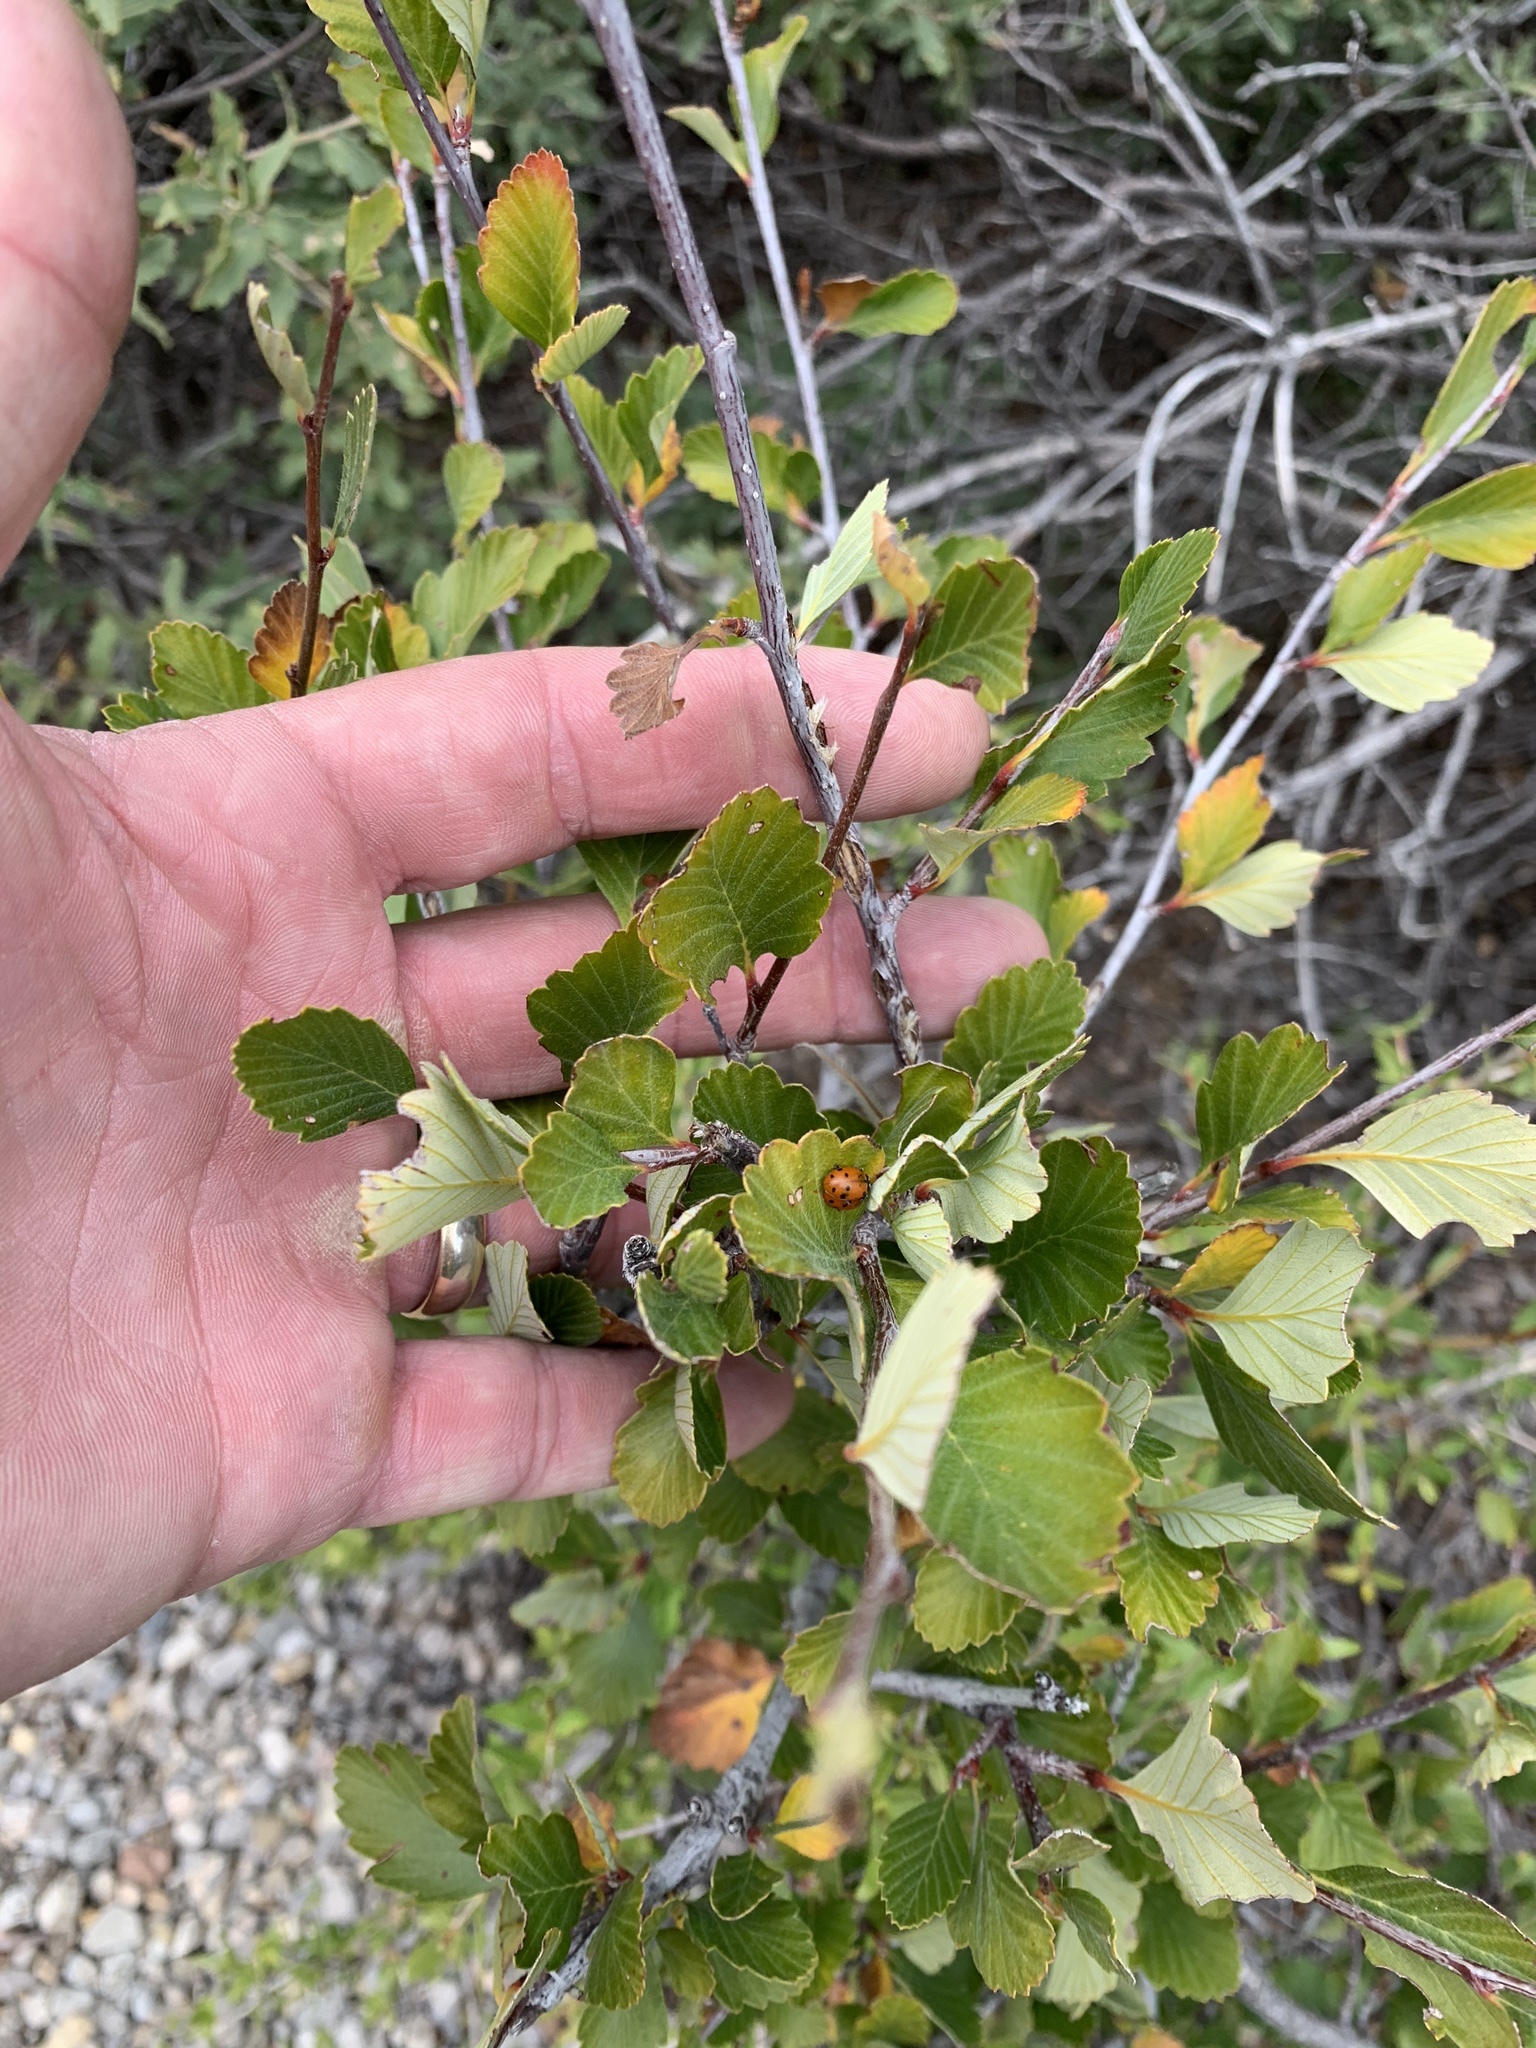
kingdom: Plantae
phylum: Tracheophyta
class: Magnoliopsida
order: Rosales
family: Rosaceae
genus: Cercocarpus
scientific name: Cercocarpus montanus
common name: Alder-leaf cercocarpus
